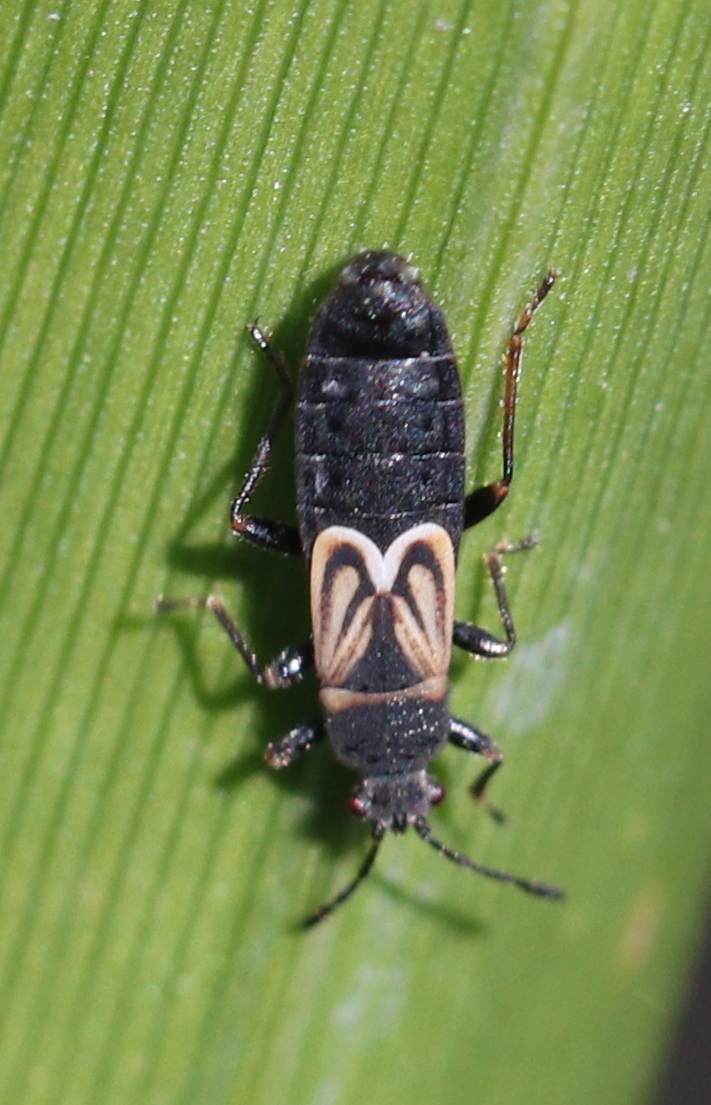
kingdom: Animalia
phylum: Arthropoda
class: Insecta
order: Hemiptera
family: Blissidae
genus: Ischnodemus
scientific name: Ischnodemus sabuleti
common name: European cinchbug
